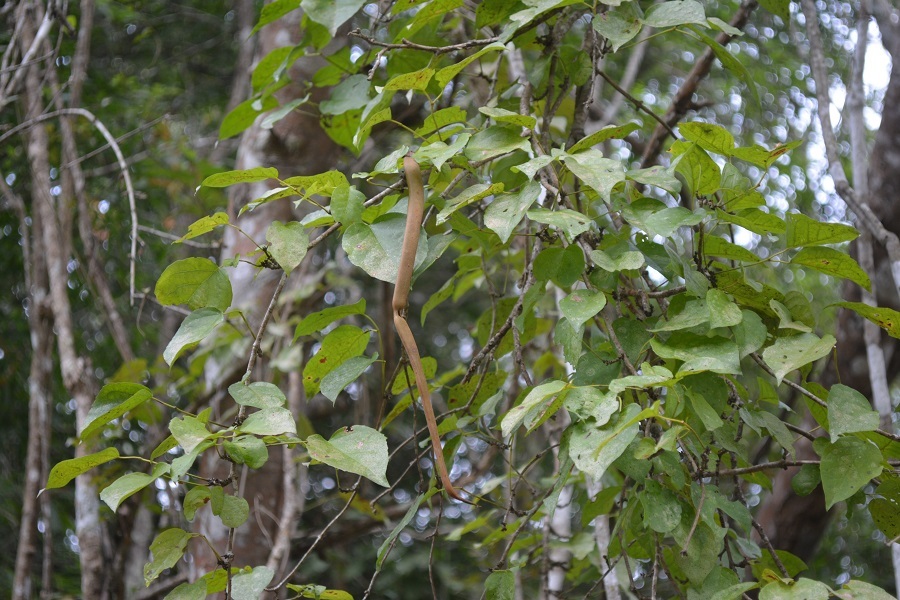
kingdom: Plantae
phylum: Tracheophyta
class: Magnoliopsida
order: Lamiales
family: Bignoniaceae
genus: Fridericia
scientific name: Fridericia chica
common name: Cricketvine
